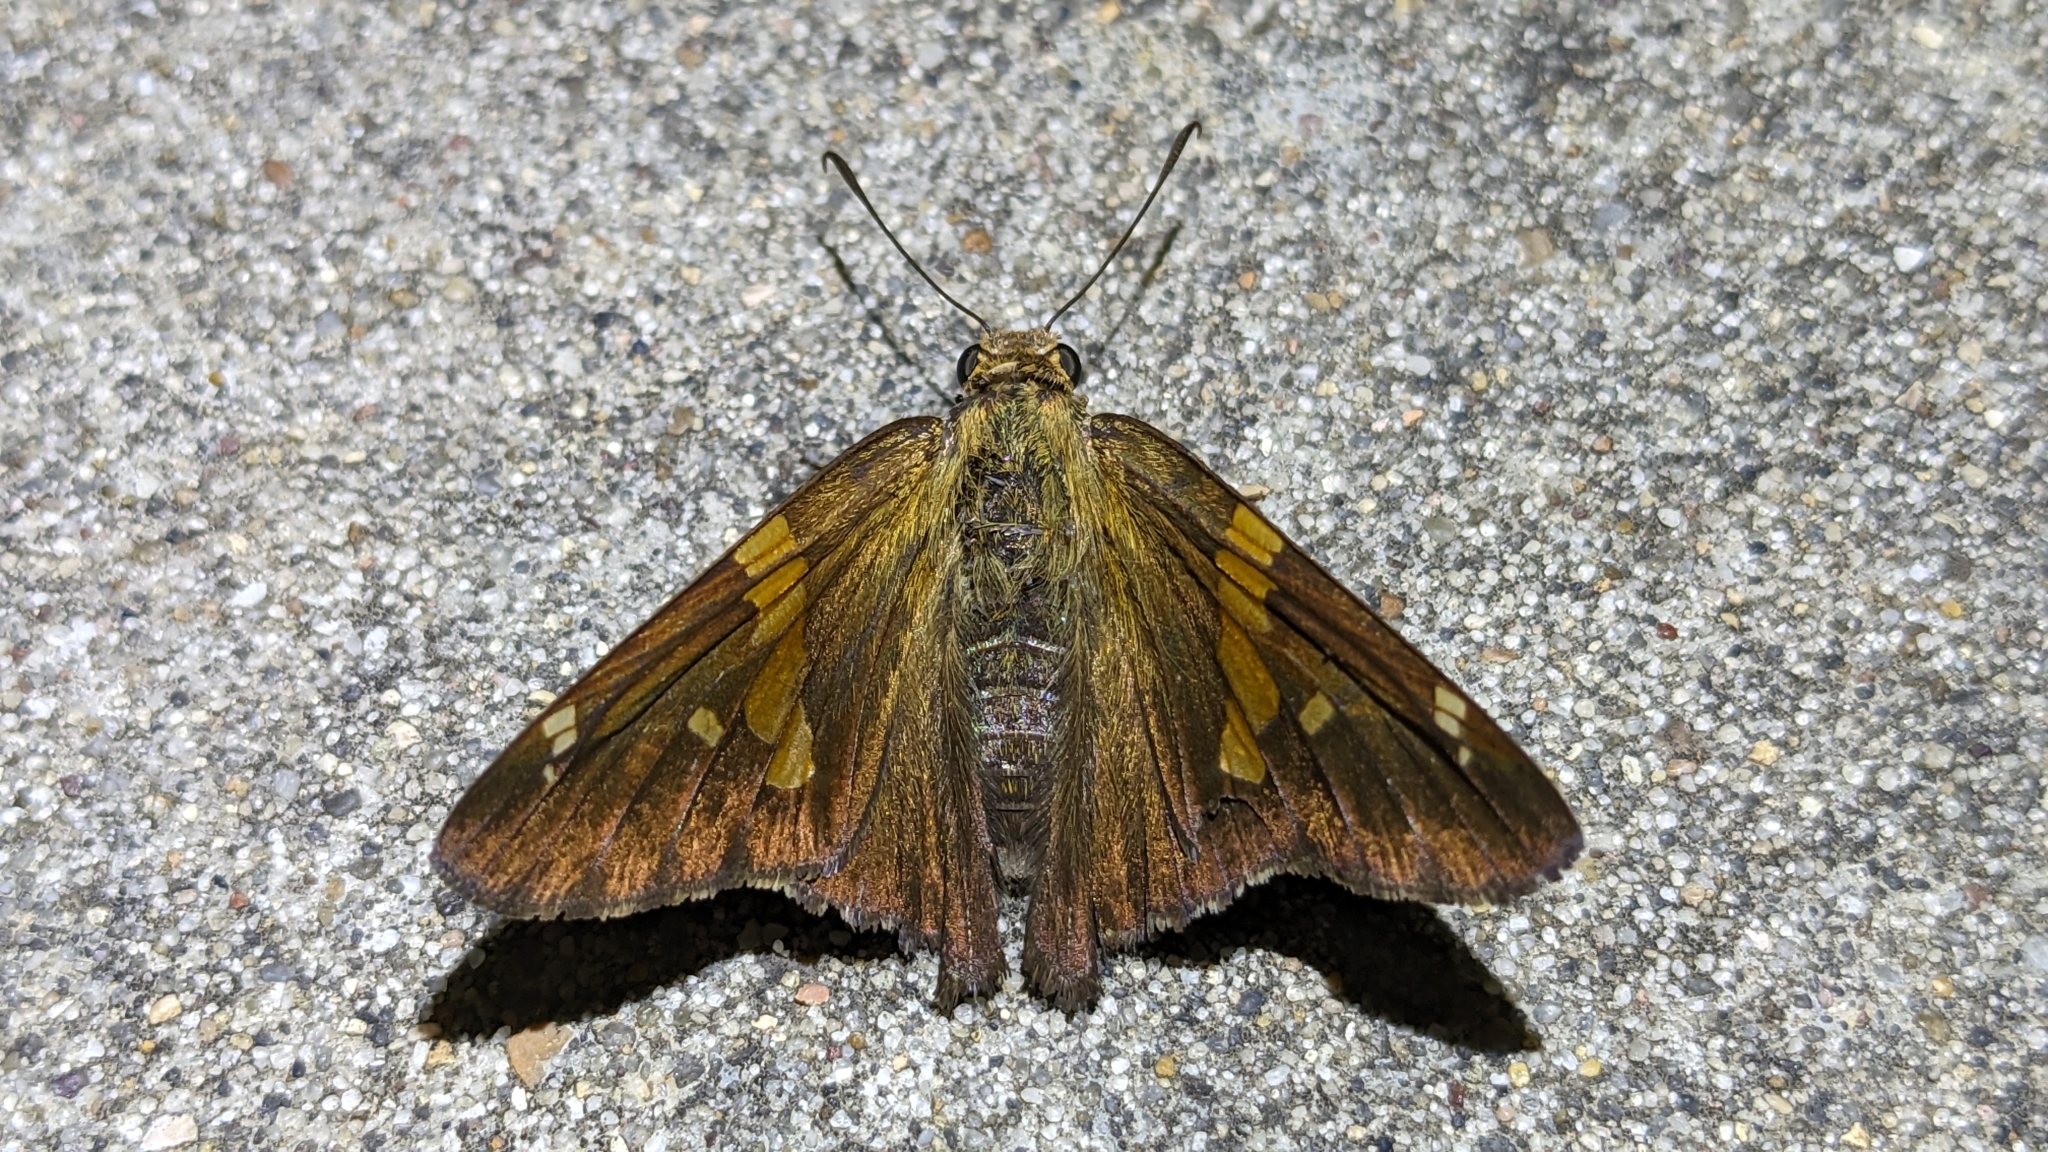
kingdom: Animalia
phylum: Arthropoda
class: Insecta
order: Lepidoptera
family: Hesperiidae
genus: Epargyreus
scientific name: Epargyreus clarus
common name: Silver-spotted skipper
